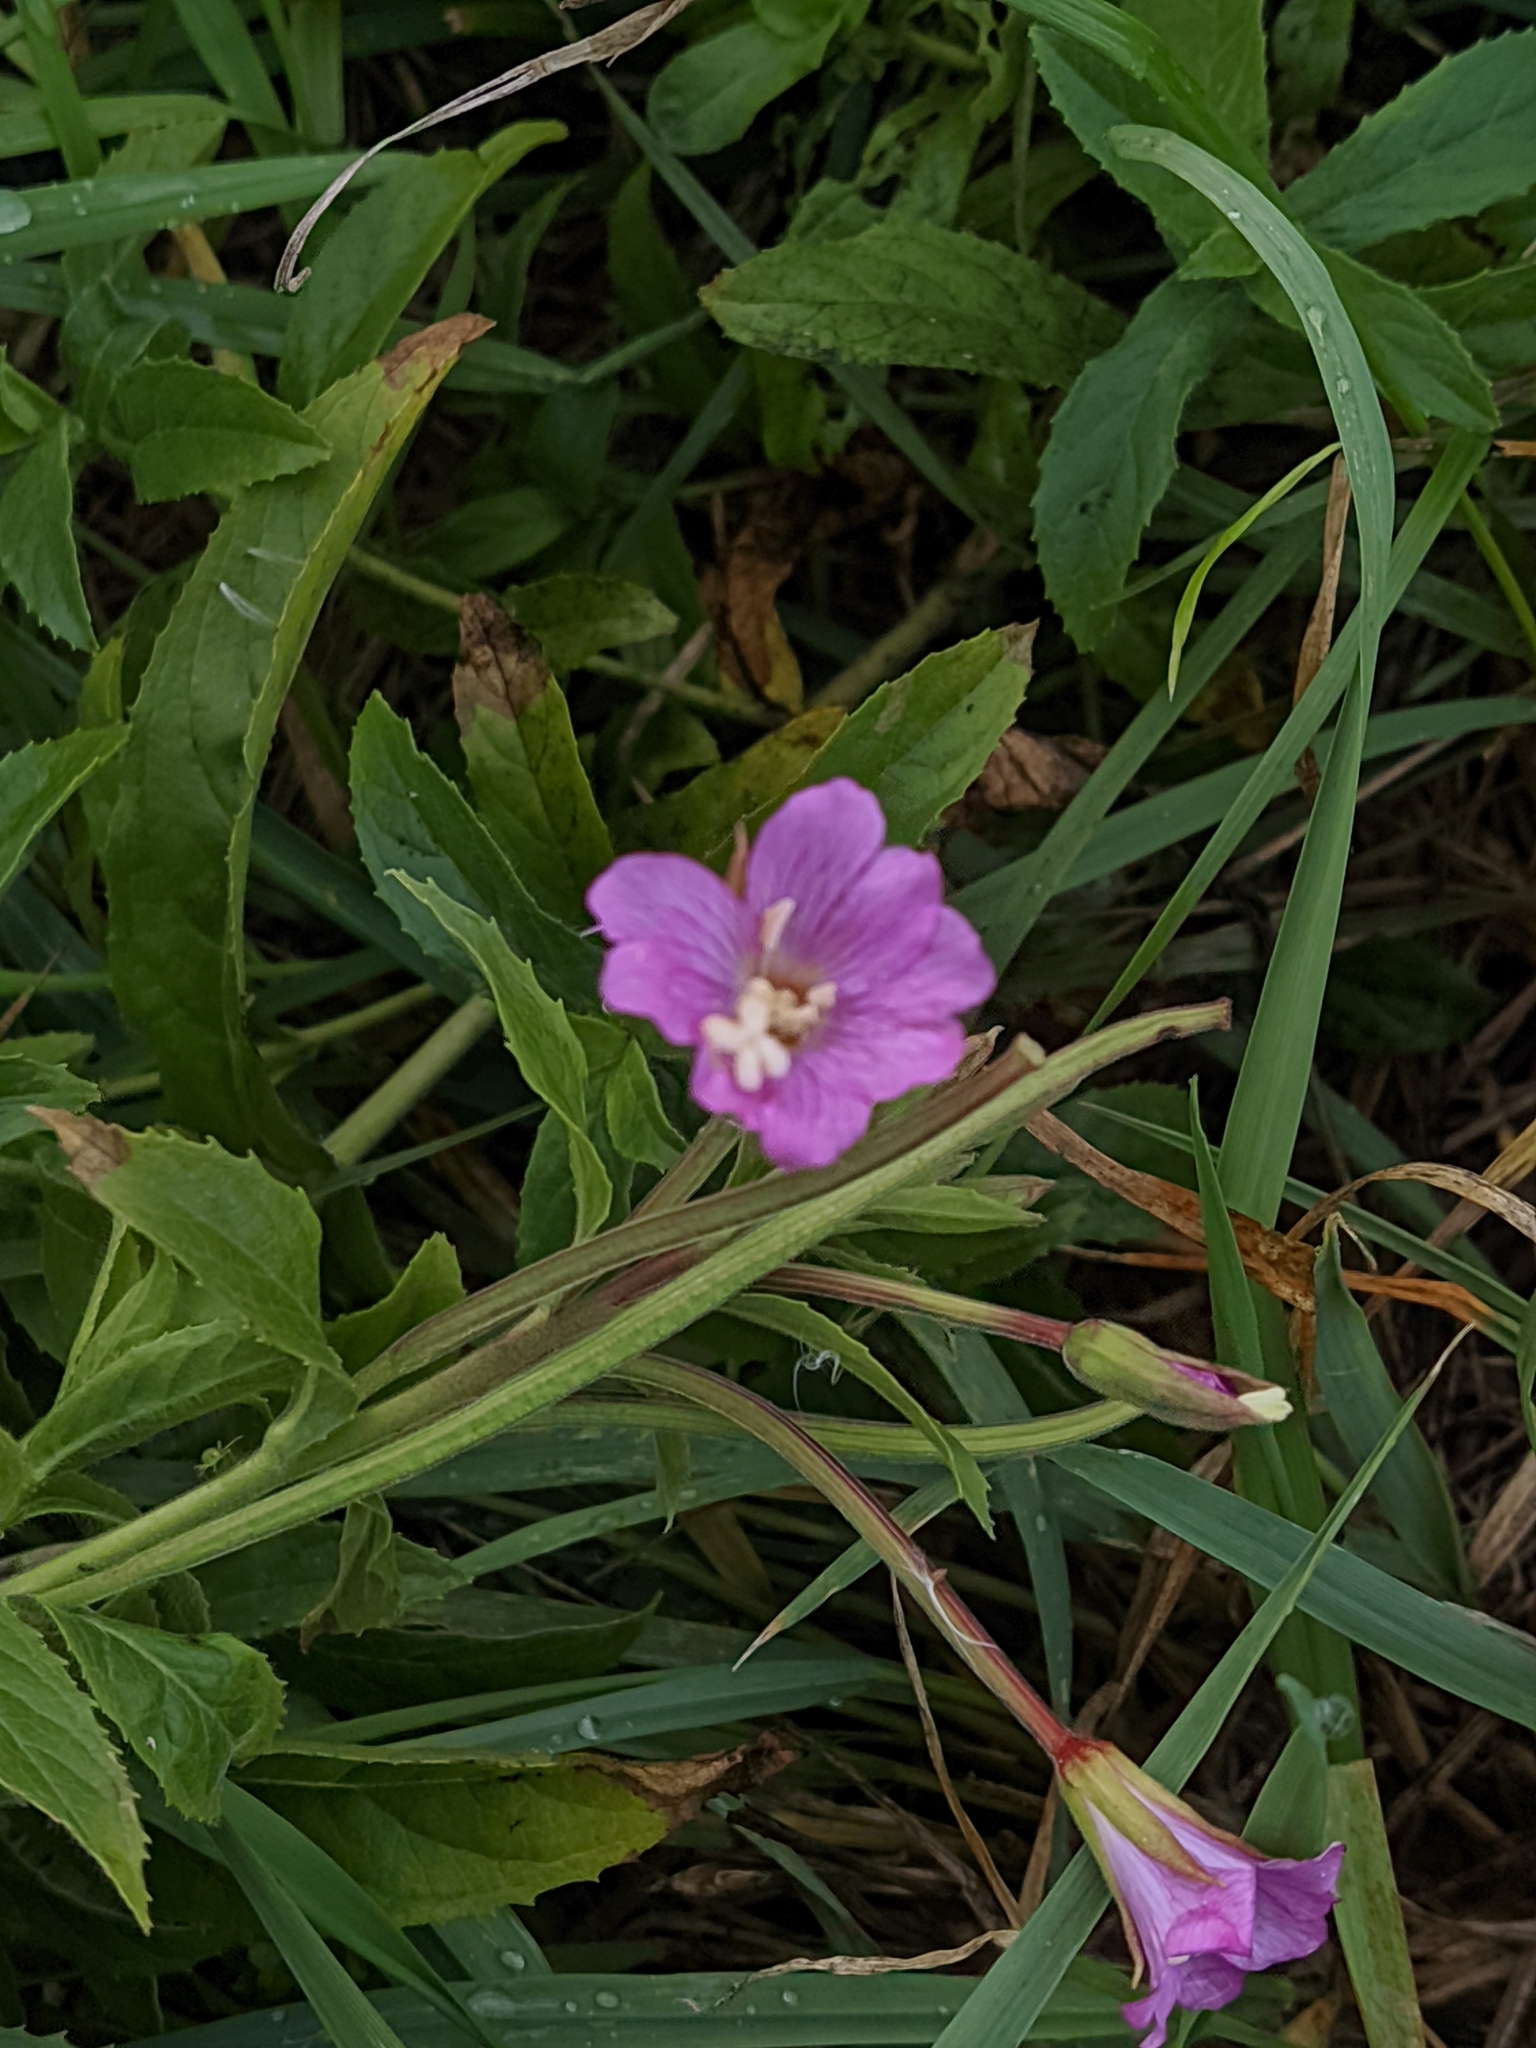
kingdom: Plantae
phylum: Tracheophyta
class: Magnoliopsida
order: Myrtales
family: Onagraceae
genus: Epilobium
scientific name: Epilobium hirsutum
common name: Great willowherb
